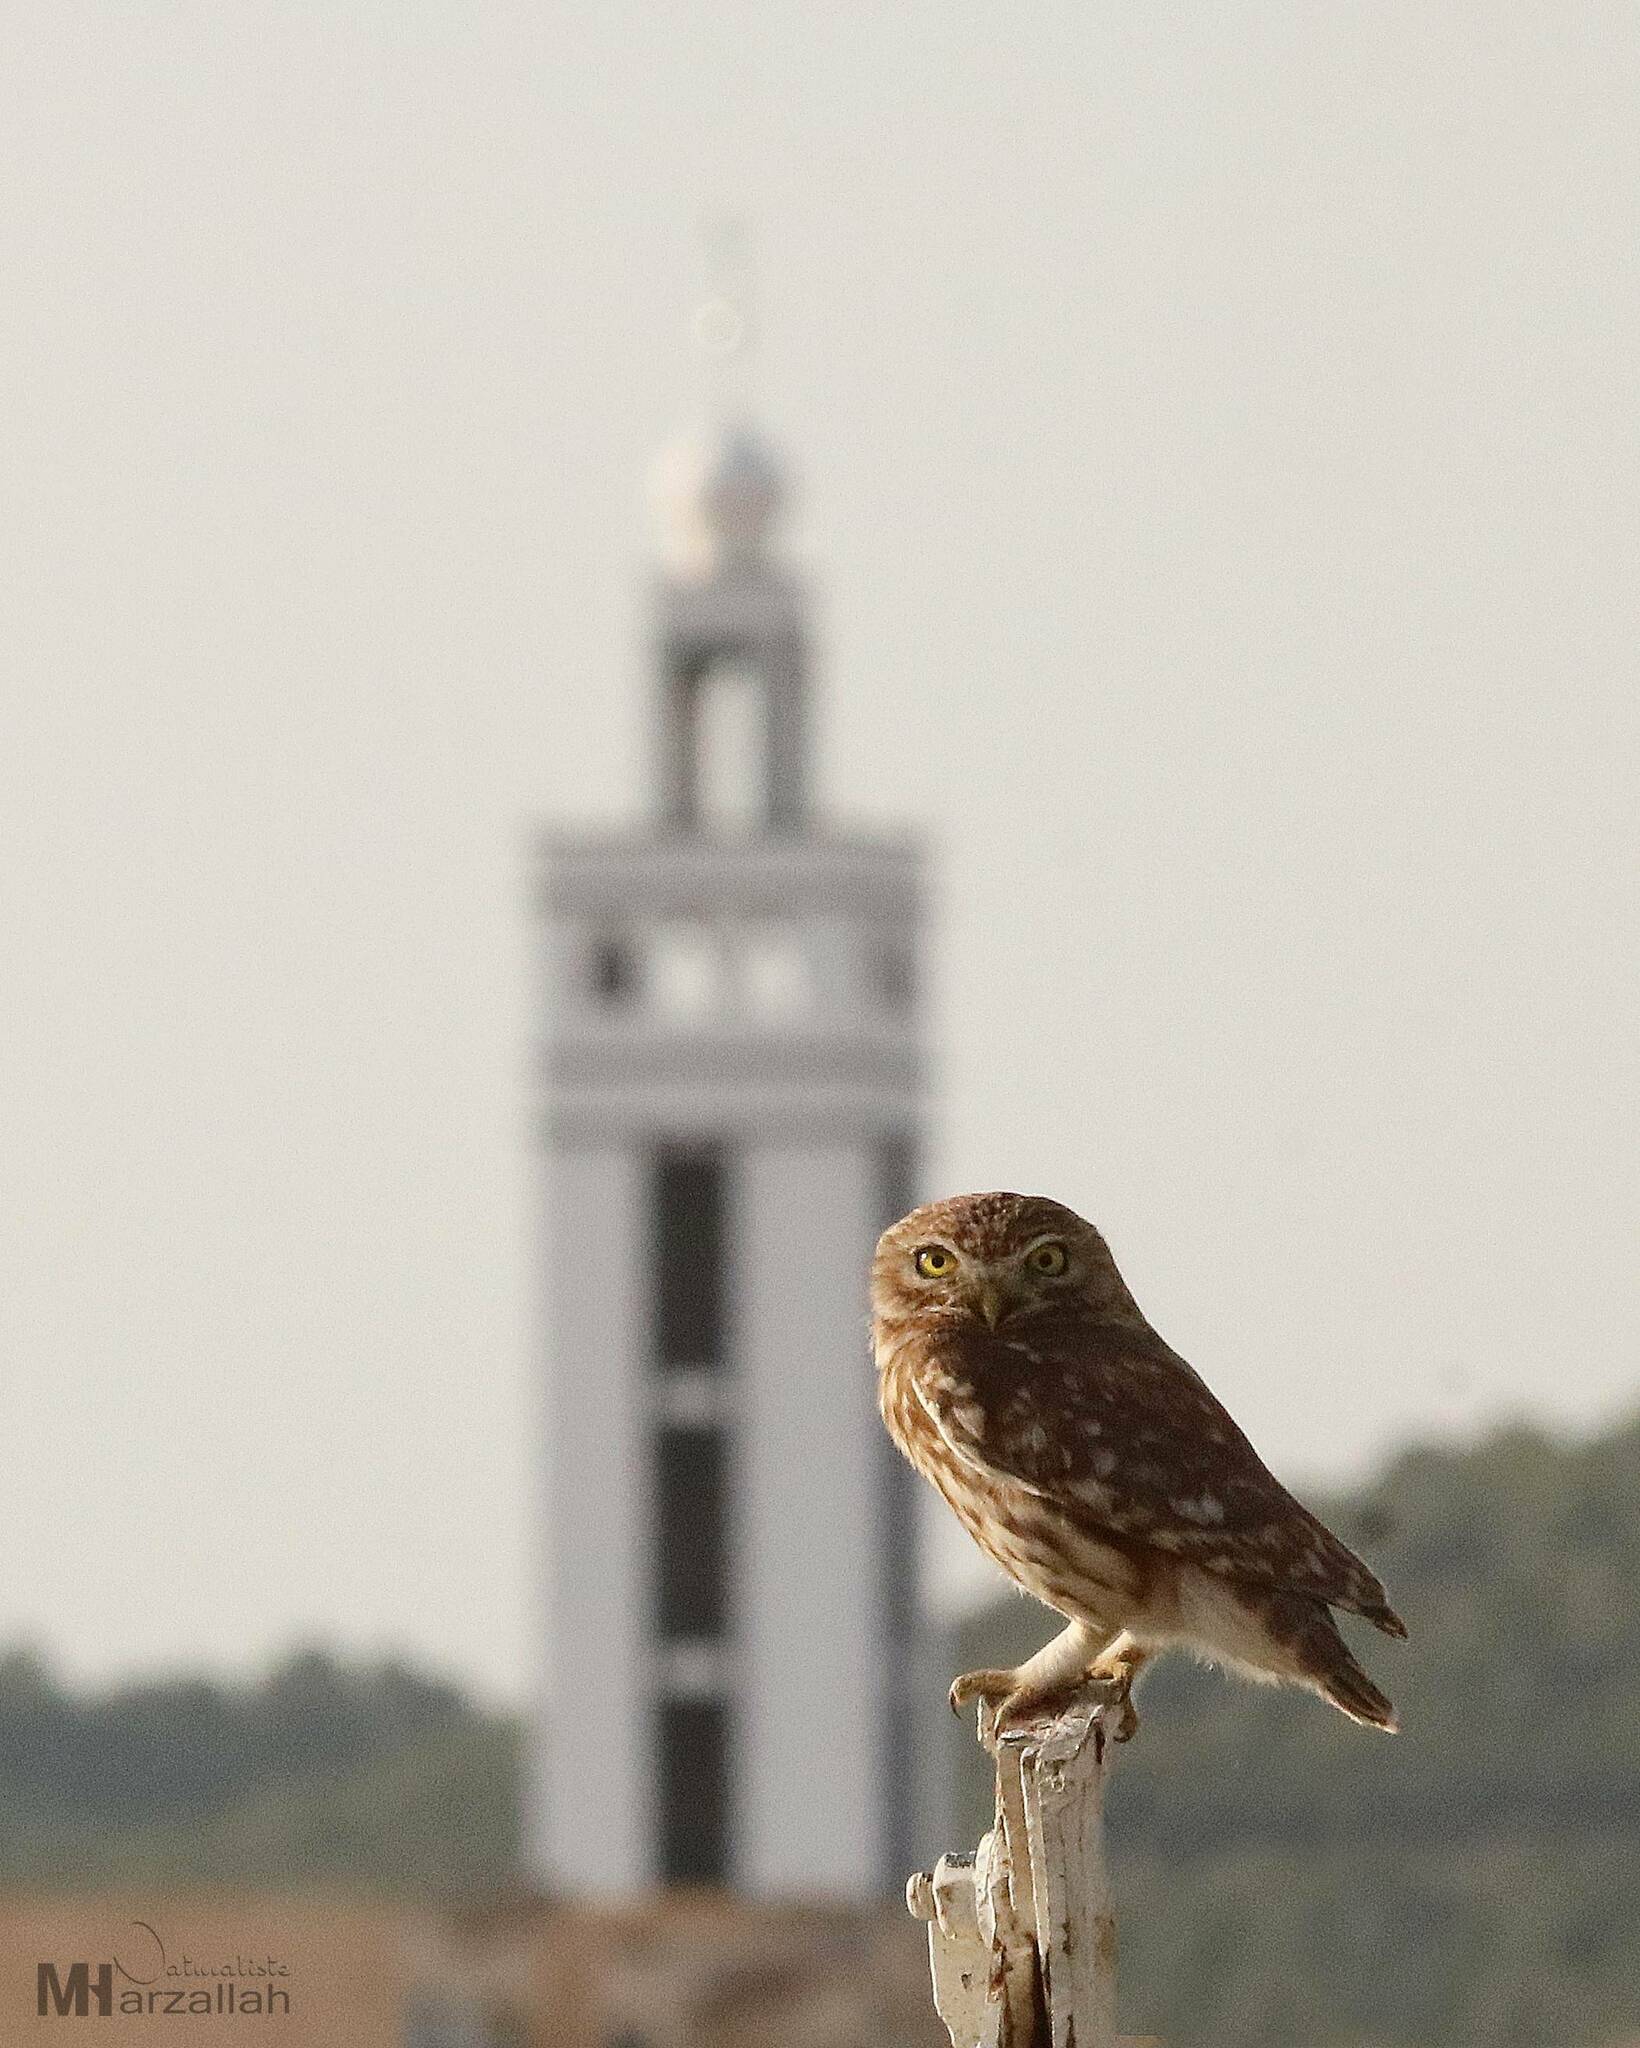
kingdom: Animalia
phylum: Chordata
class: Aves
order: Strigiformes
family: Strigidae
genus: Athene
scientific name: Athene noctua
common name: Little owl
